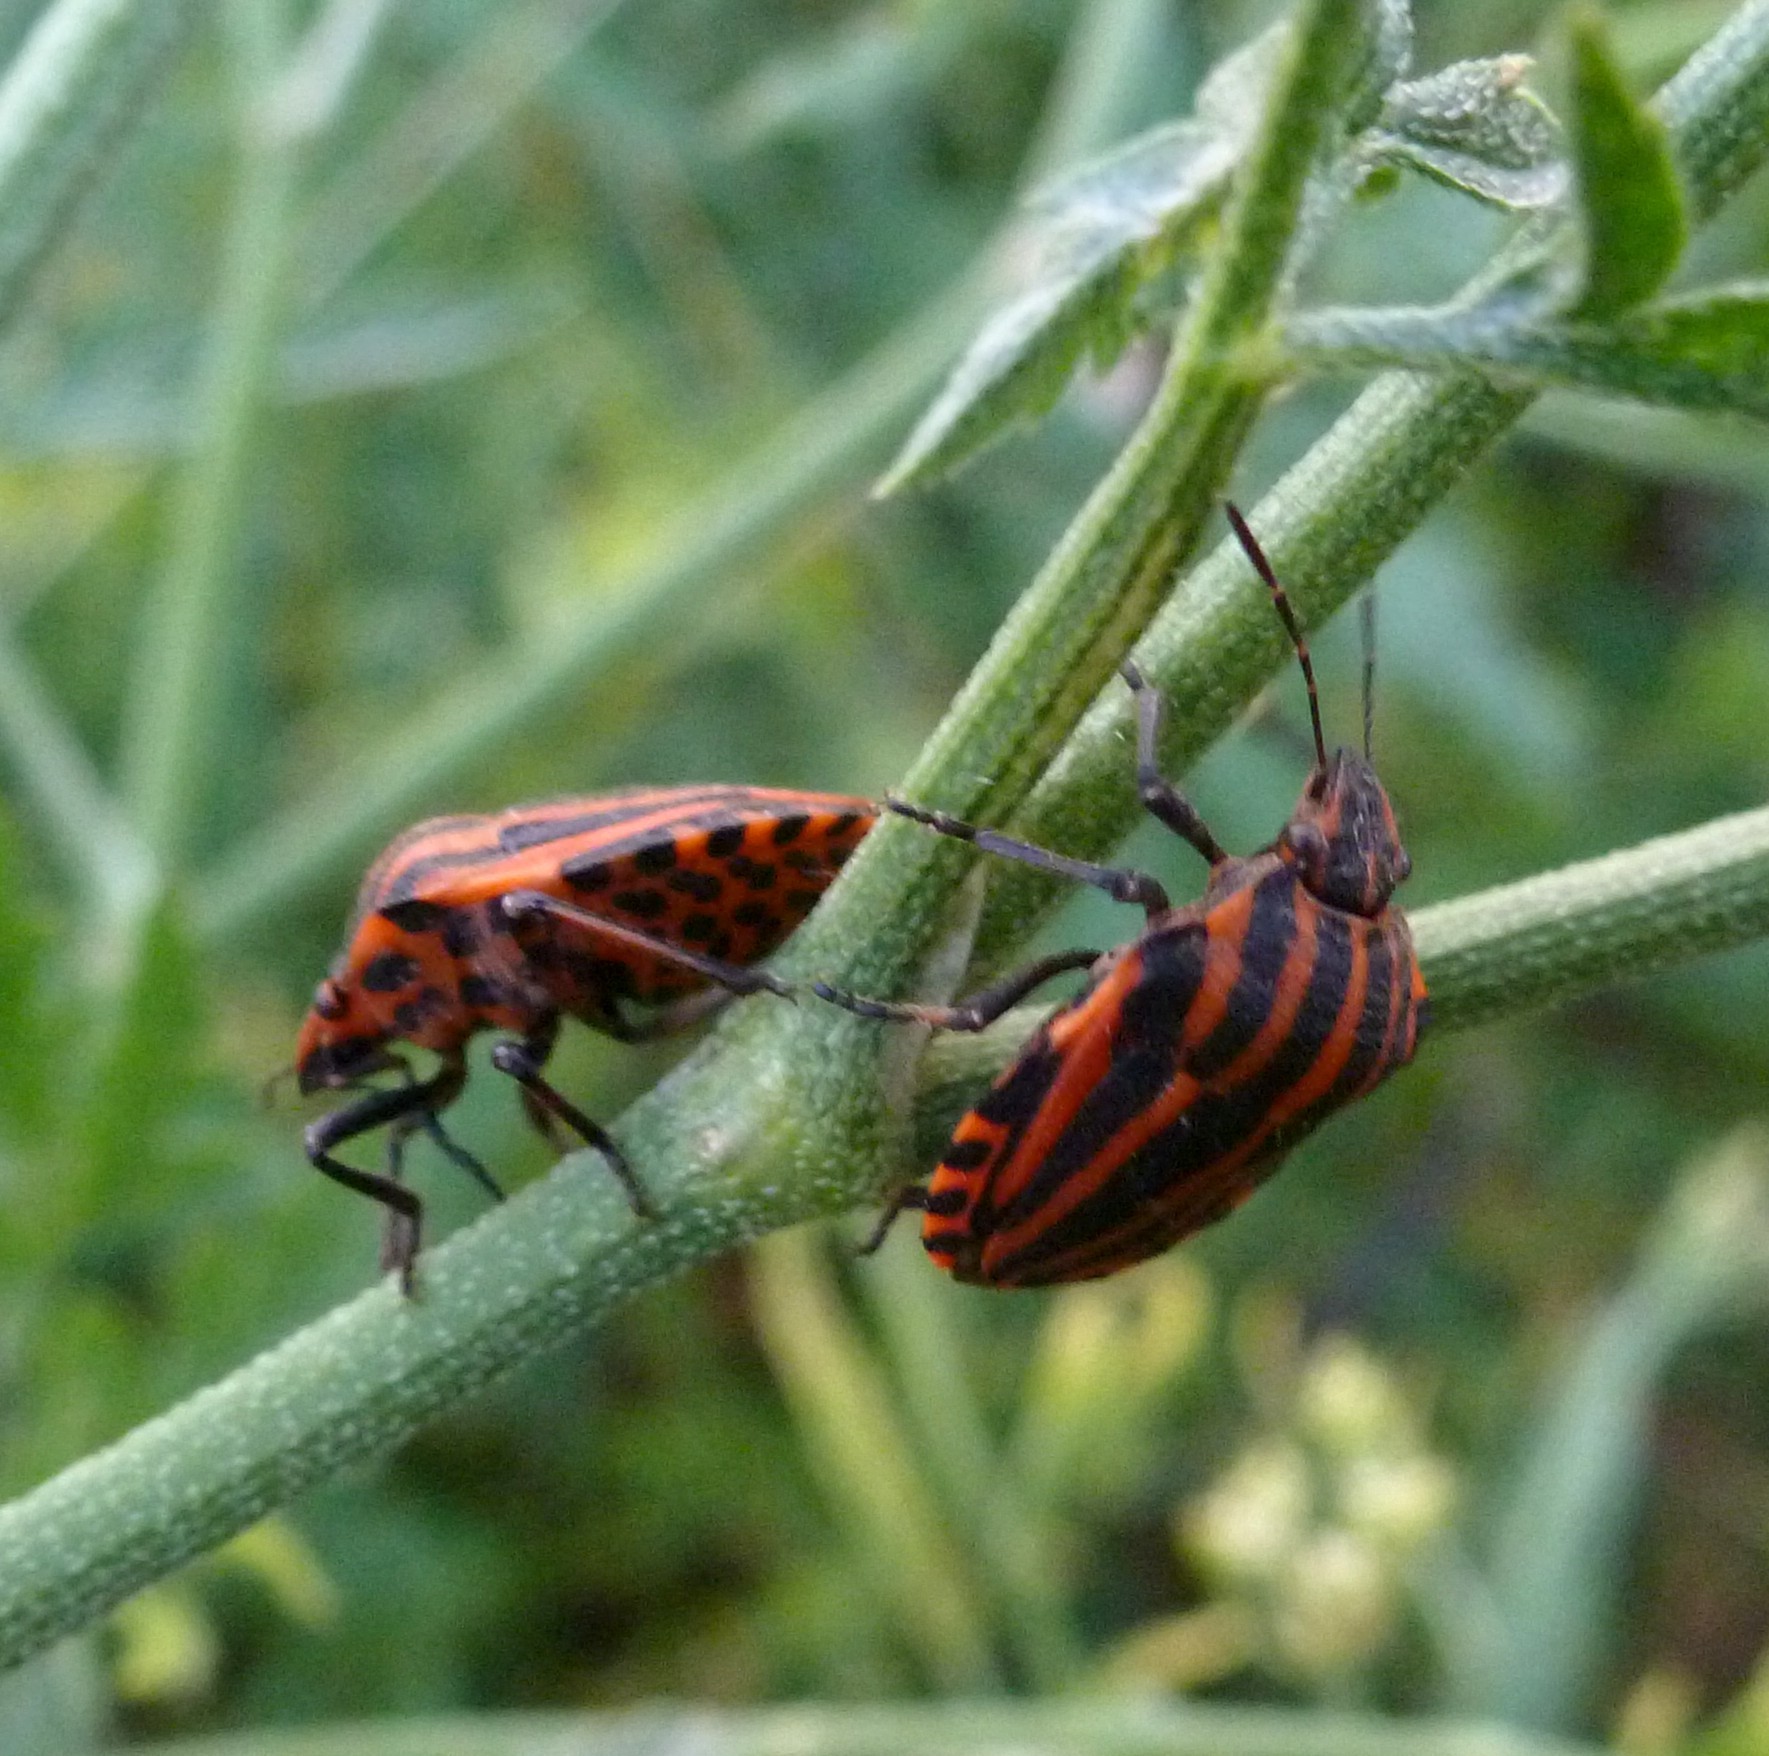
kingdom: Animalia
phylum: Arthropoda
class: Insecta
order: Hemiptera
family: Pentatomidae
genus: Graphosoma
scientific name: Graphosoma italicum
